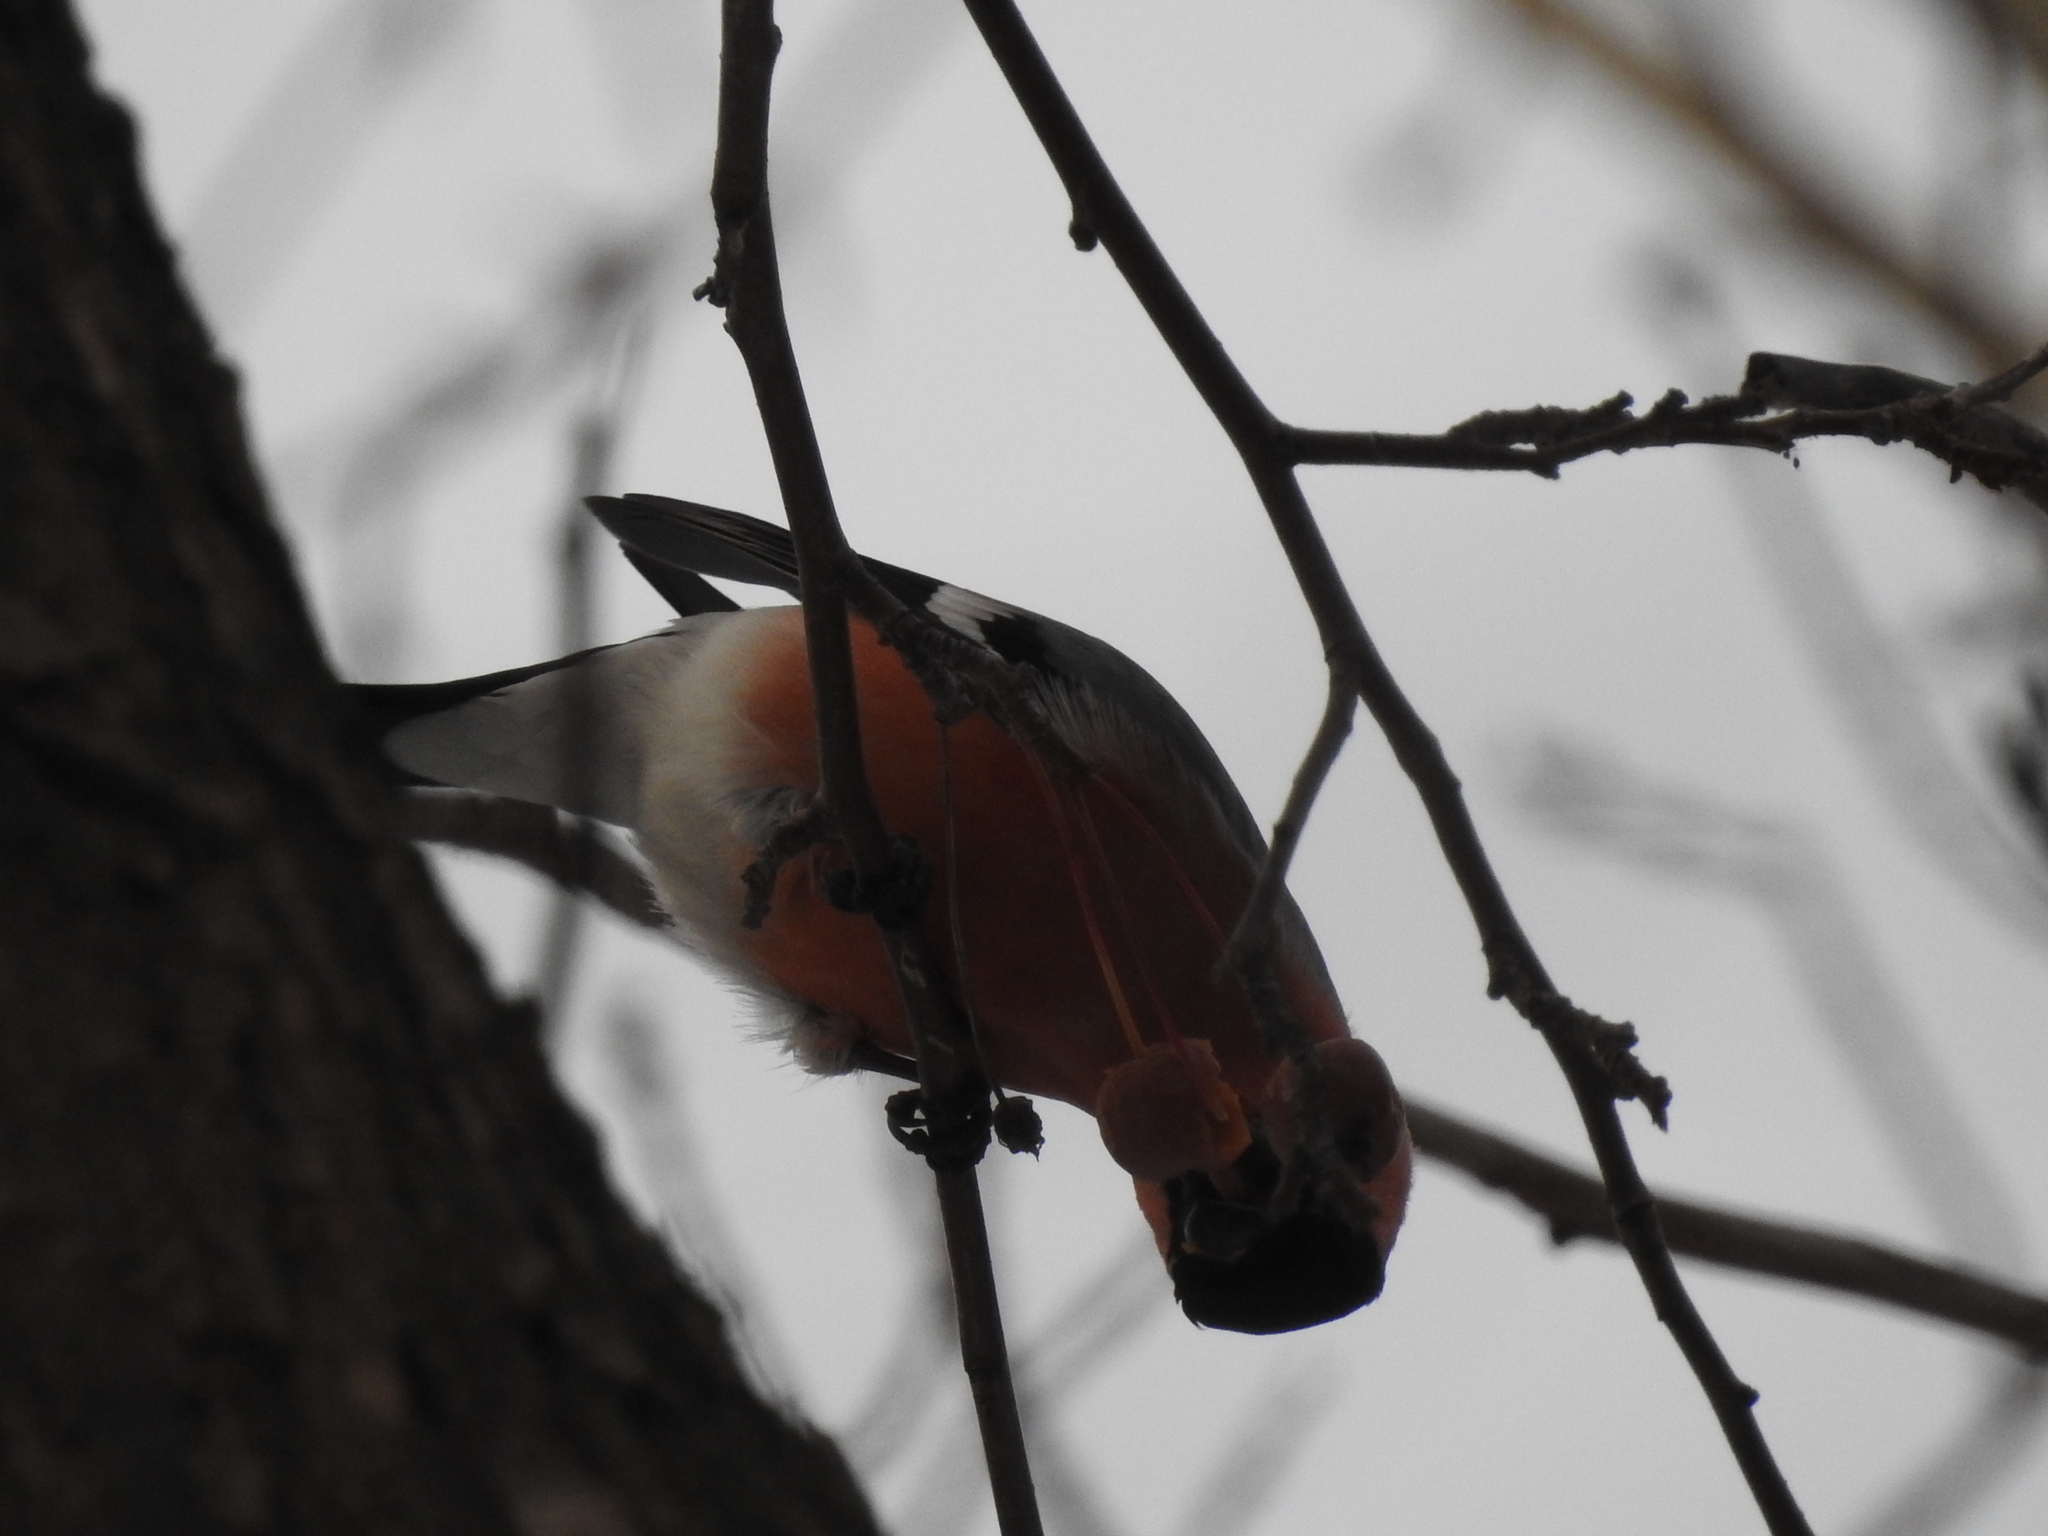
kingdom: Animalia
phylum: Chordata
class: Aves
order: Passeriformes
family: Fringillidae
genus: Pyrrhula
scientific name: Pyrrhula pyrrhula
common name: Eurasian bullfinch
